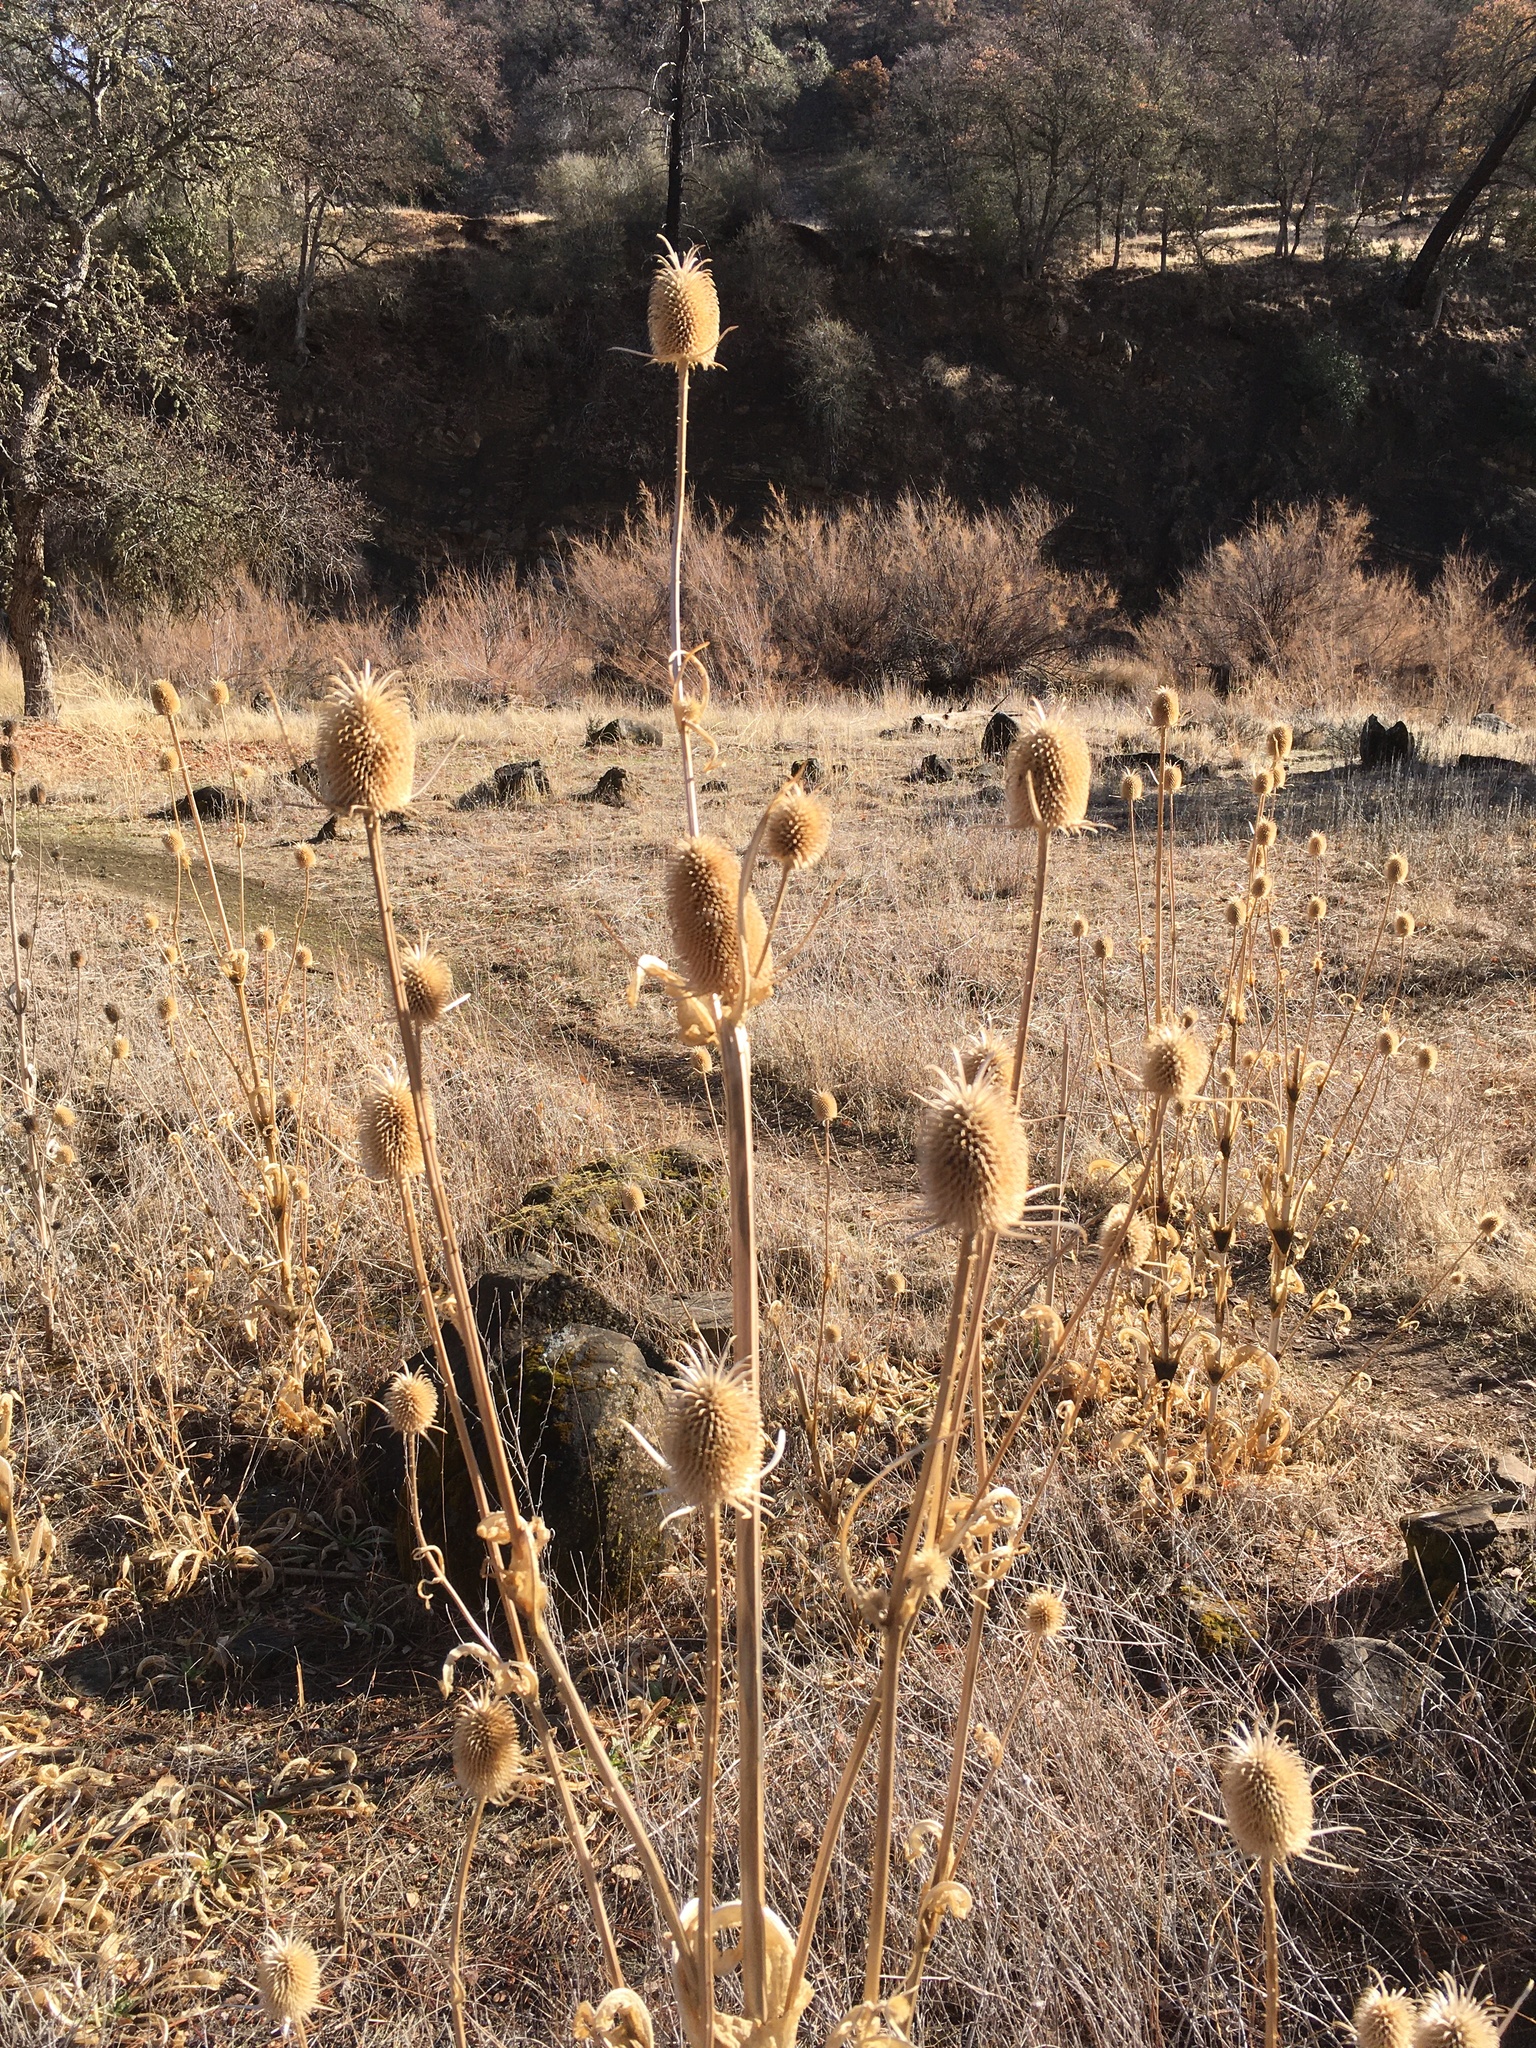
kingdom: Plantae
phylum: Tracheophyta
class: Magnoliopsida
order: Dipsacales
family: Caprifoliaceae
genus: Dipsacus
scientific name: Dipsacus sativus
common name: Fuller's teasel
